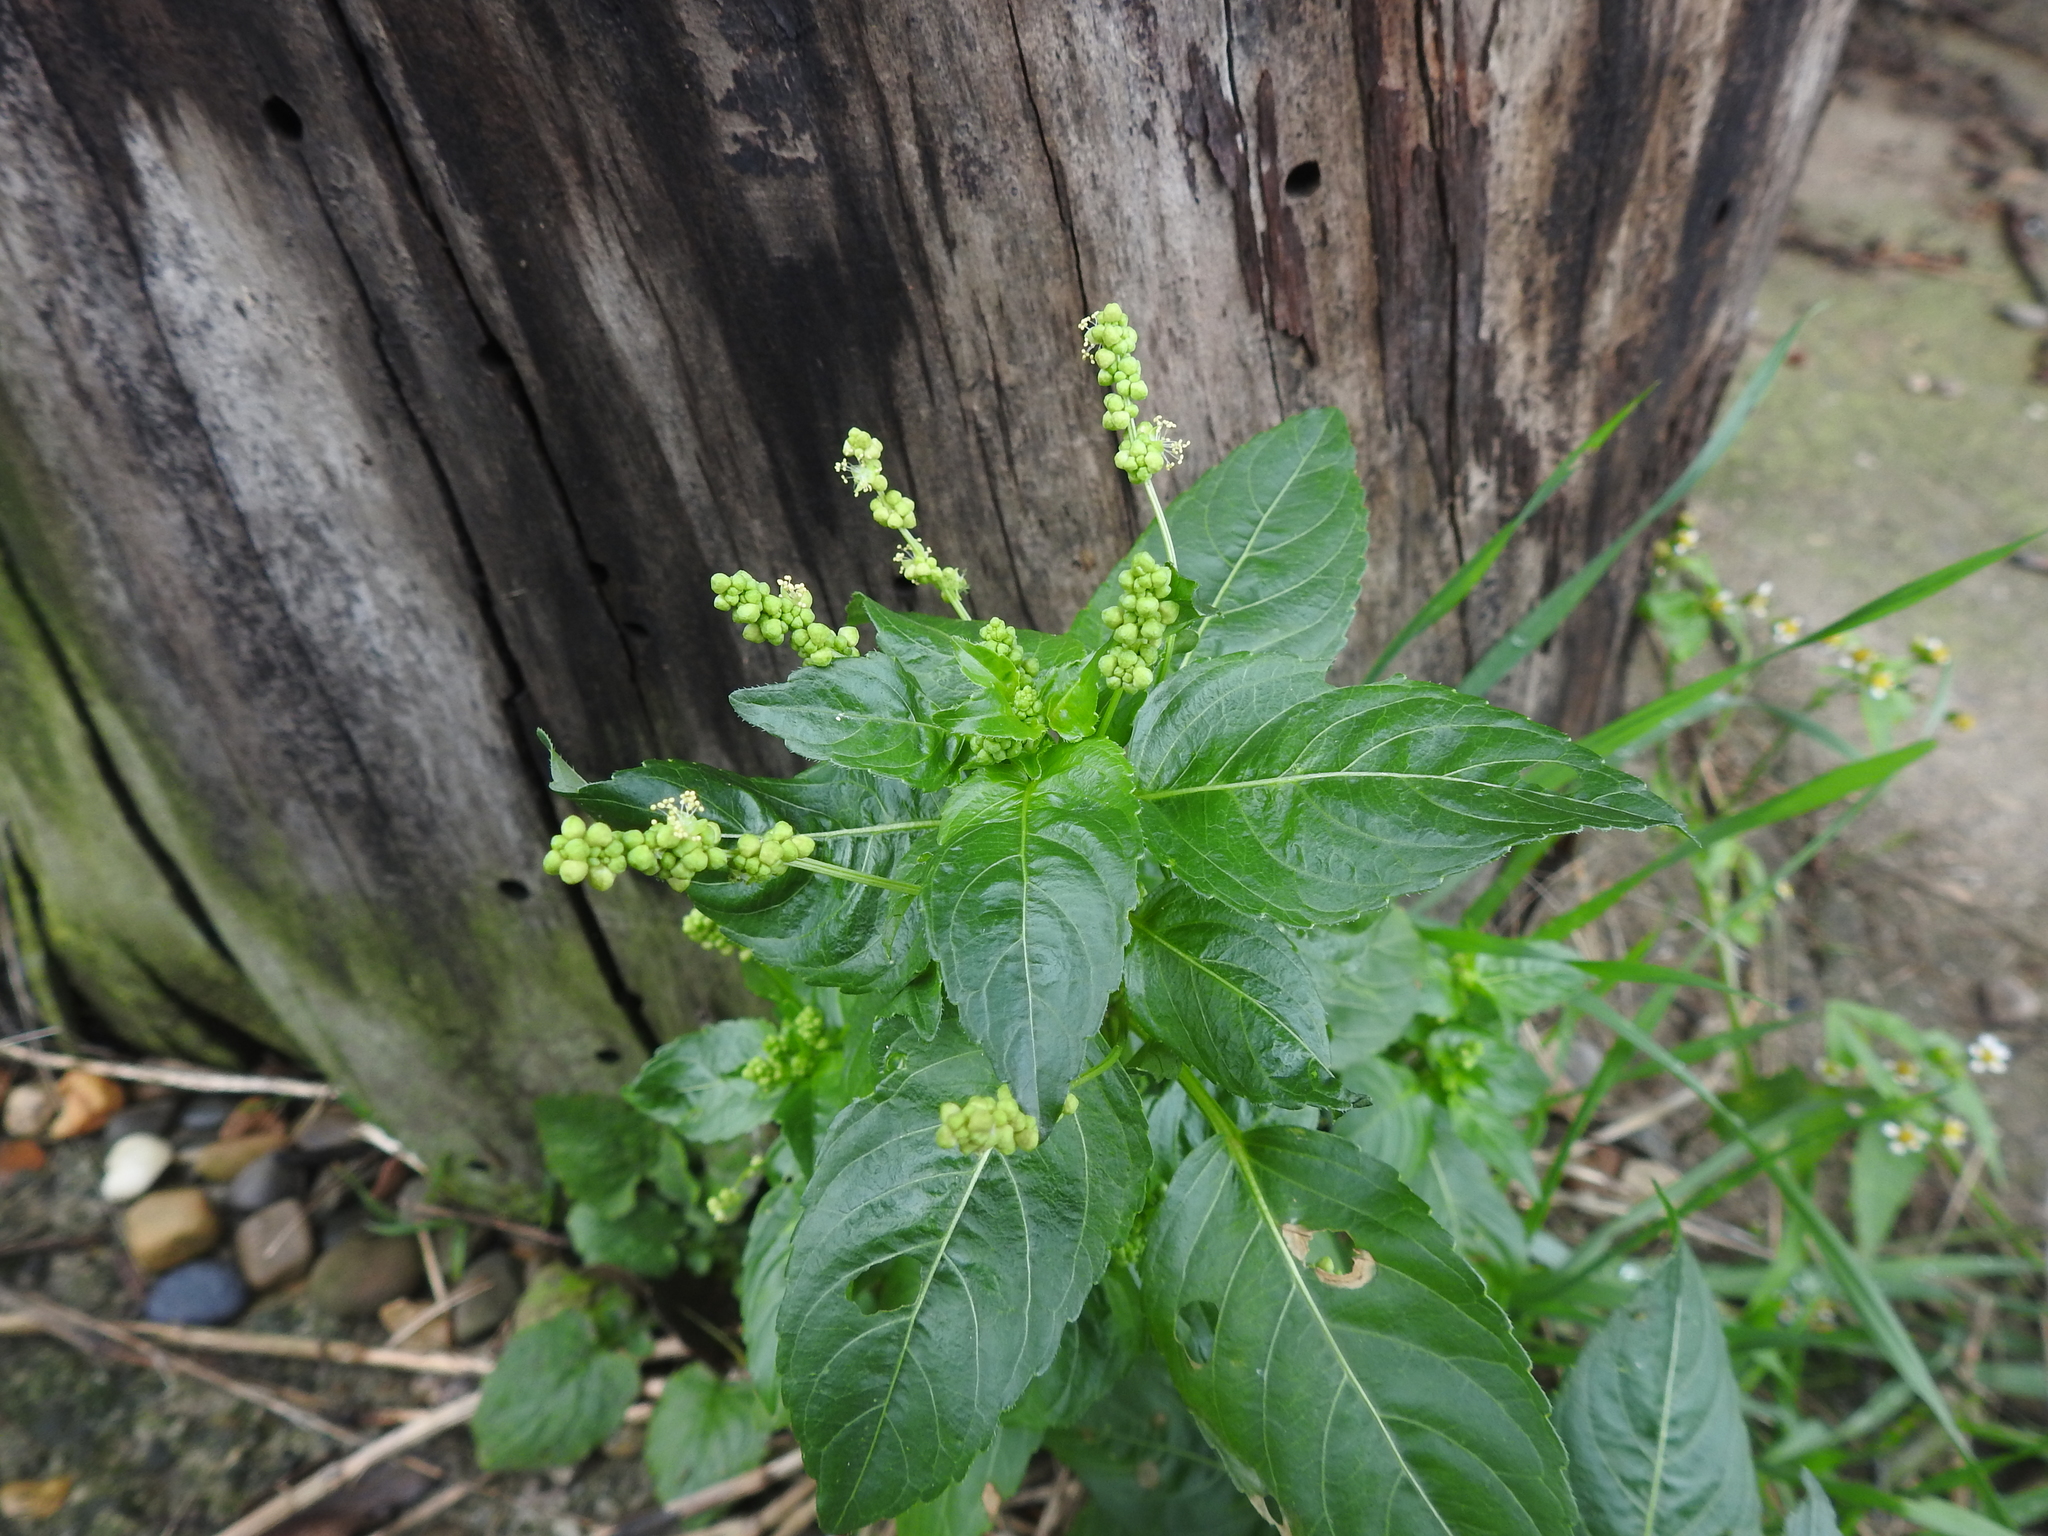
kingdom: Plantae
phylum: Tracheophyta
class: Magnoliopsida
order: Malpighiales
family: Euphorbiaceae
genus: Mercurialis
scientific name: Mercurialis annua
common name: Annual mercury
